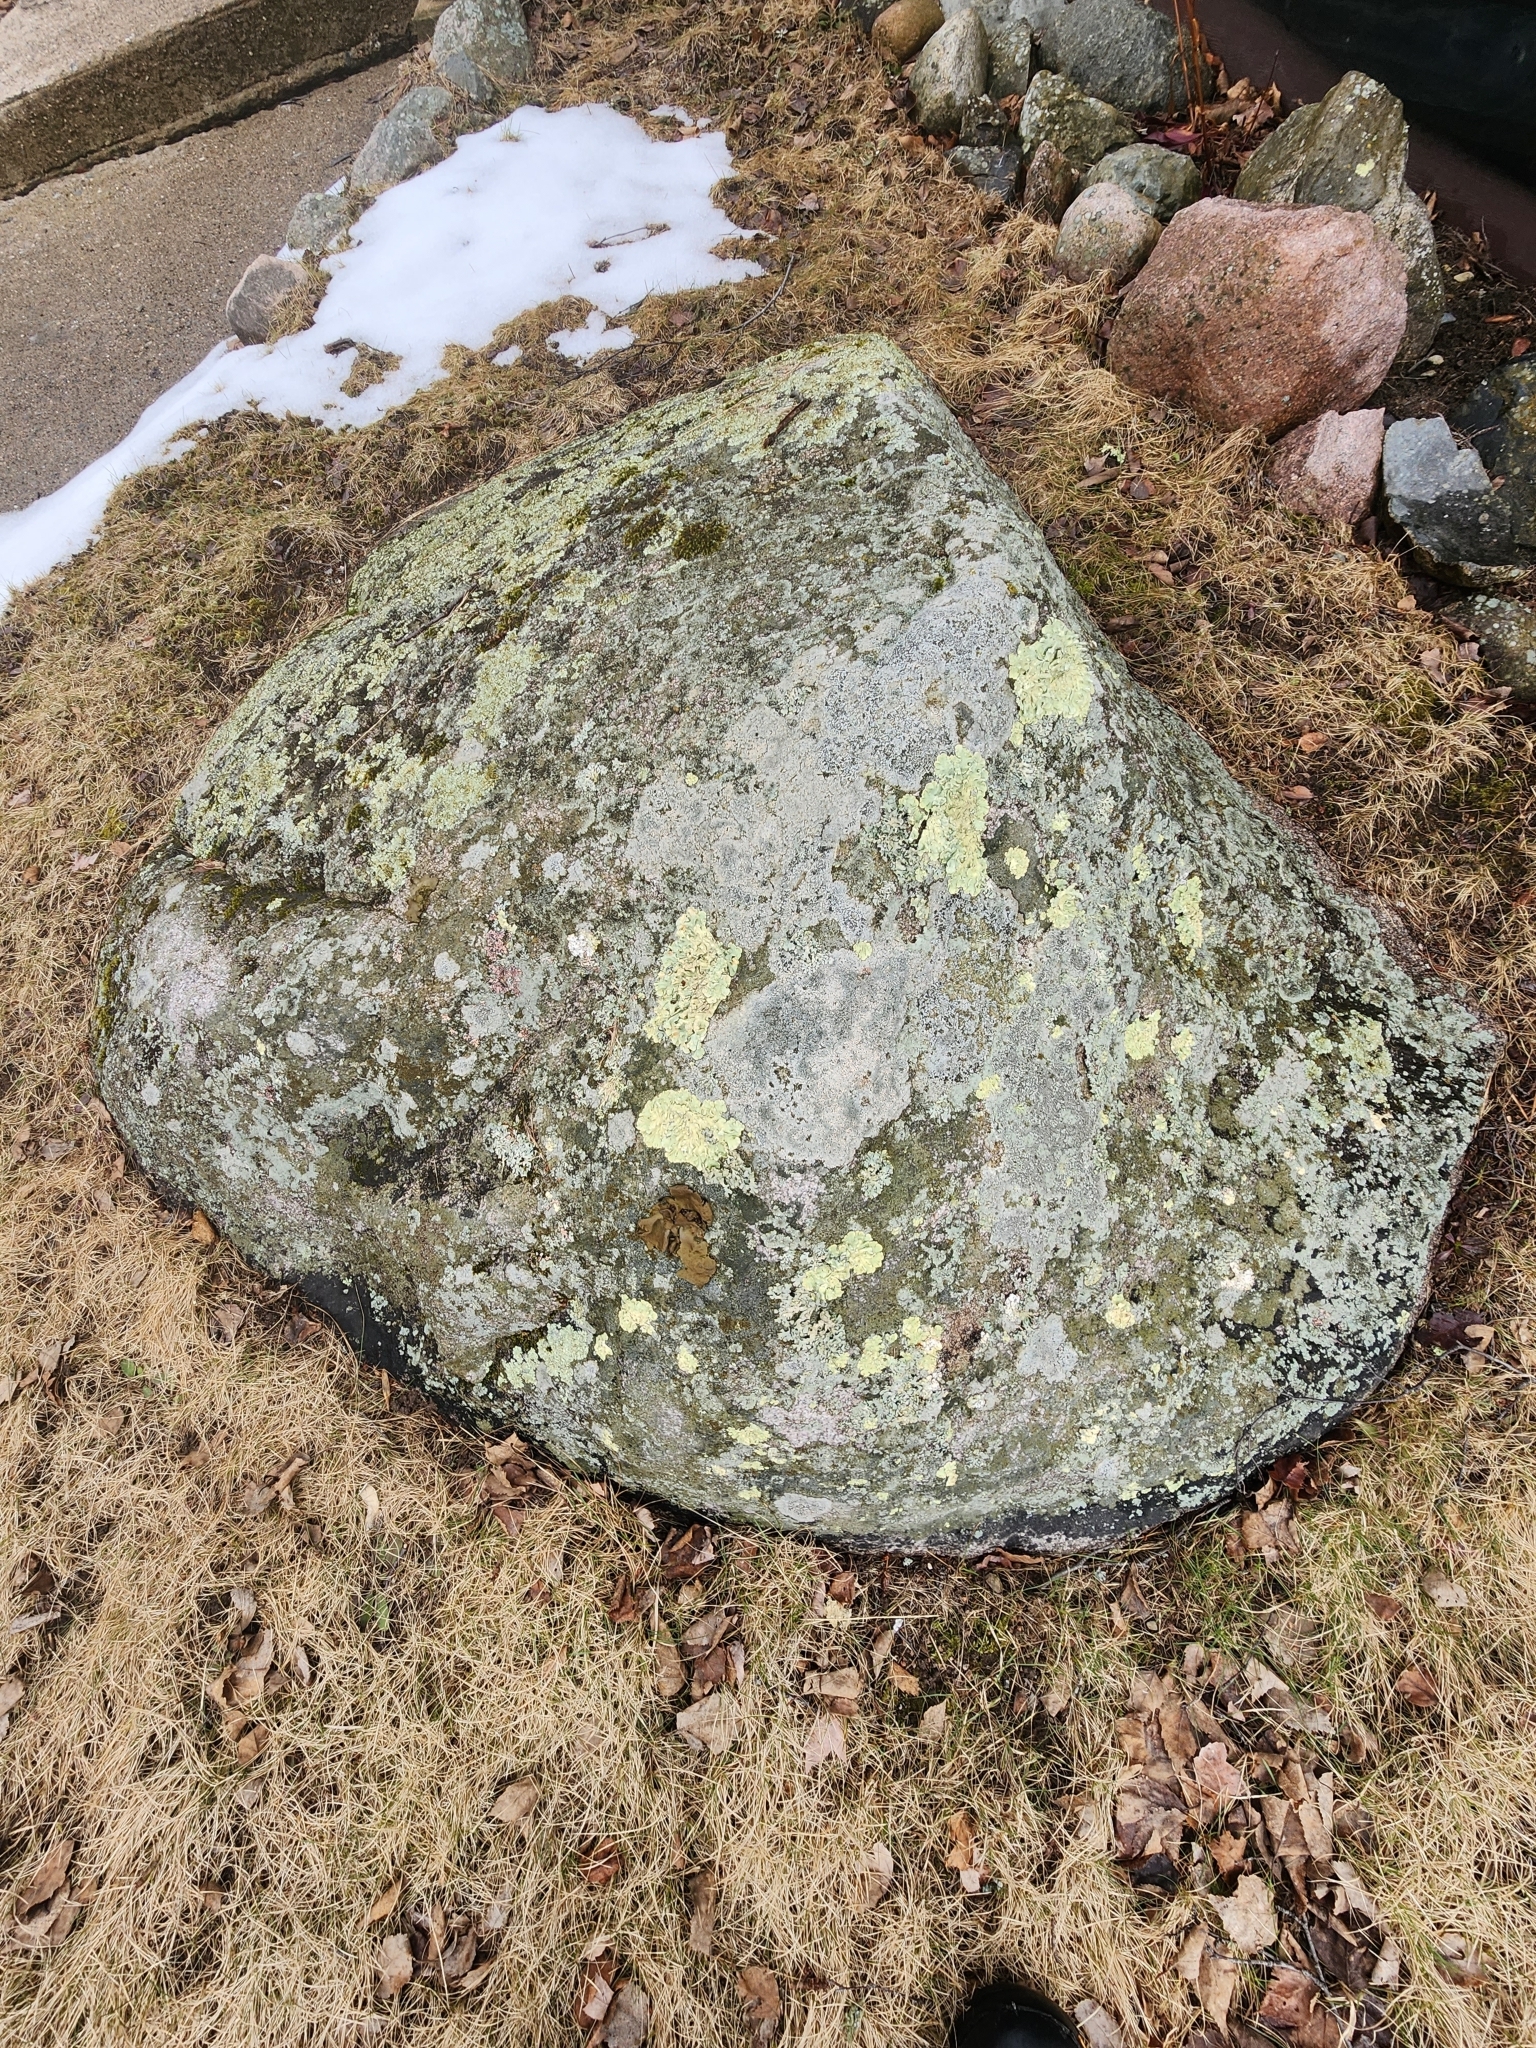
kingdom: Fungi
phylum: Ascomycota
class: Lecanoromycetes
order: Umbilicariales
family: Umbilicariaceae
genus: Umbilicaria
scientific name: Umbilicaria muhlenbergii
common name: Lesser rocktripe
